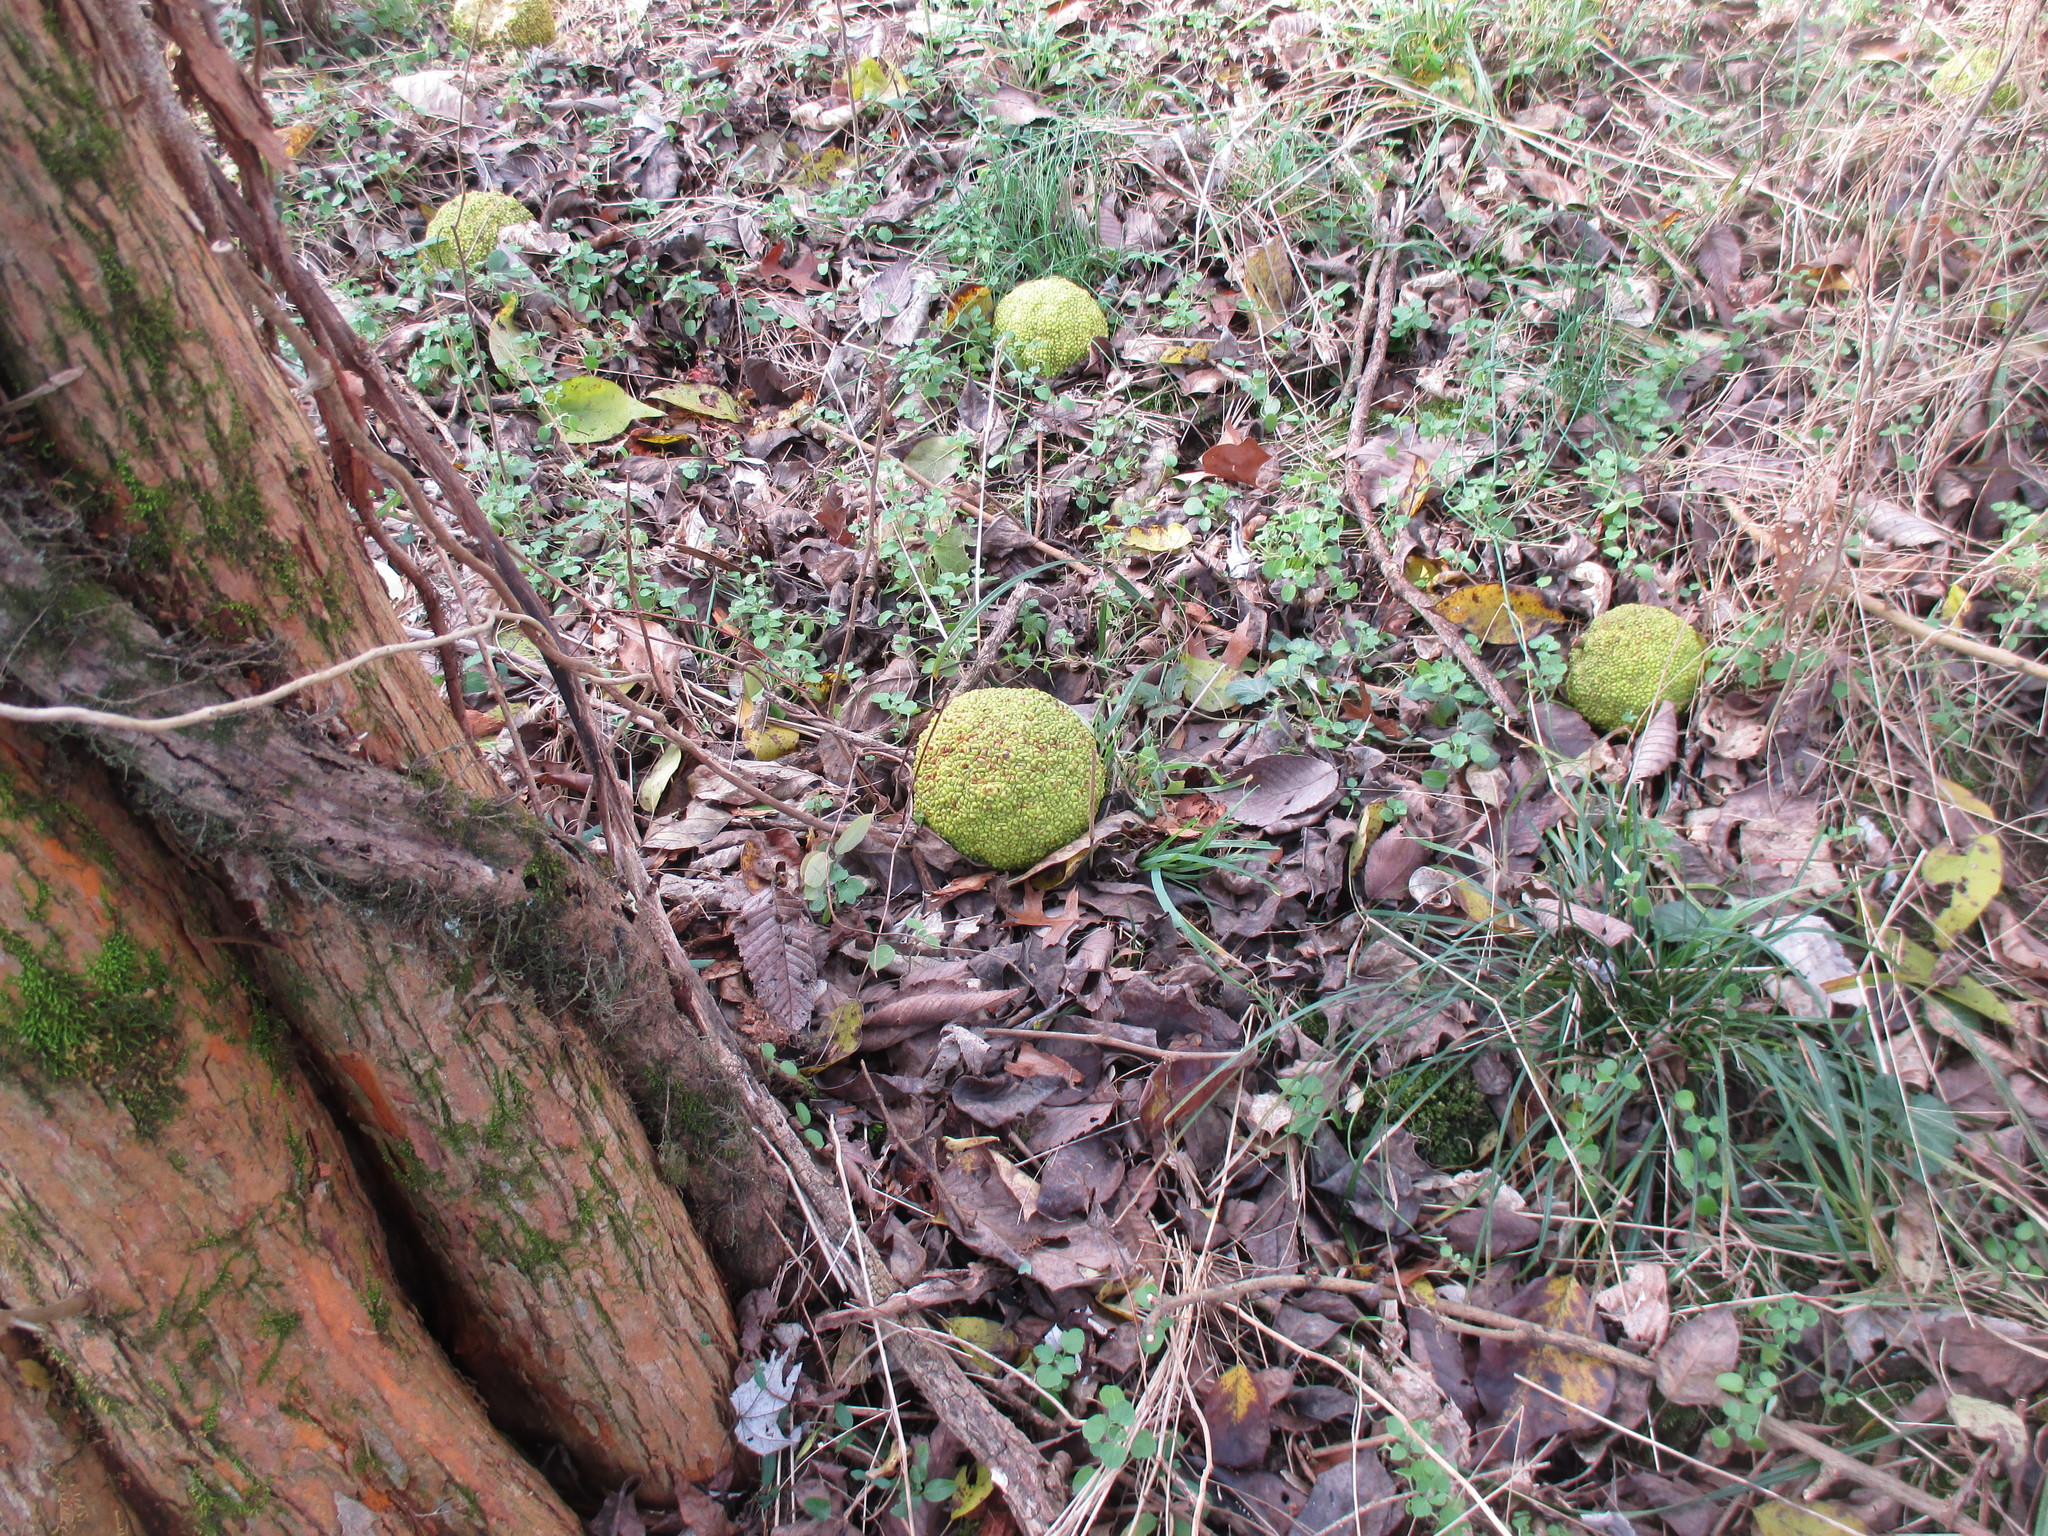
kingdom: Plantae
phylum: Tracheophyta
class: Magnoliopsida
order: Rosales
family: Moraceae
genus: Maclura
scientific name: Maclura pomifera
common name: Osage-orange
